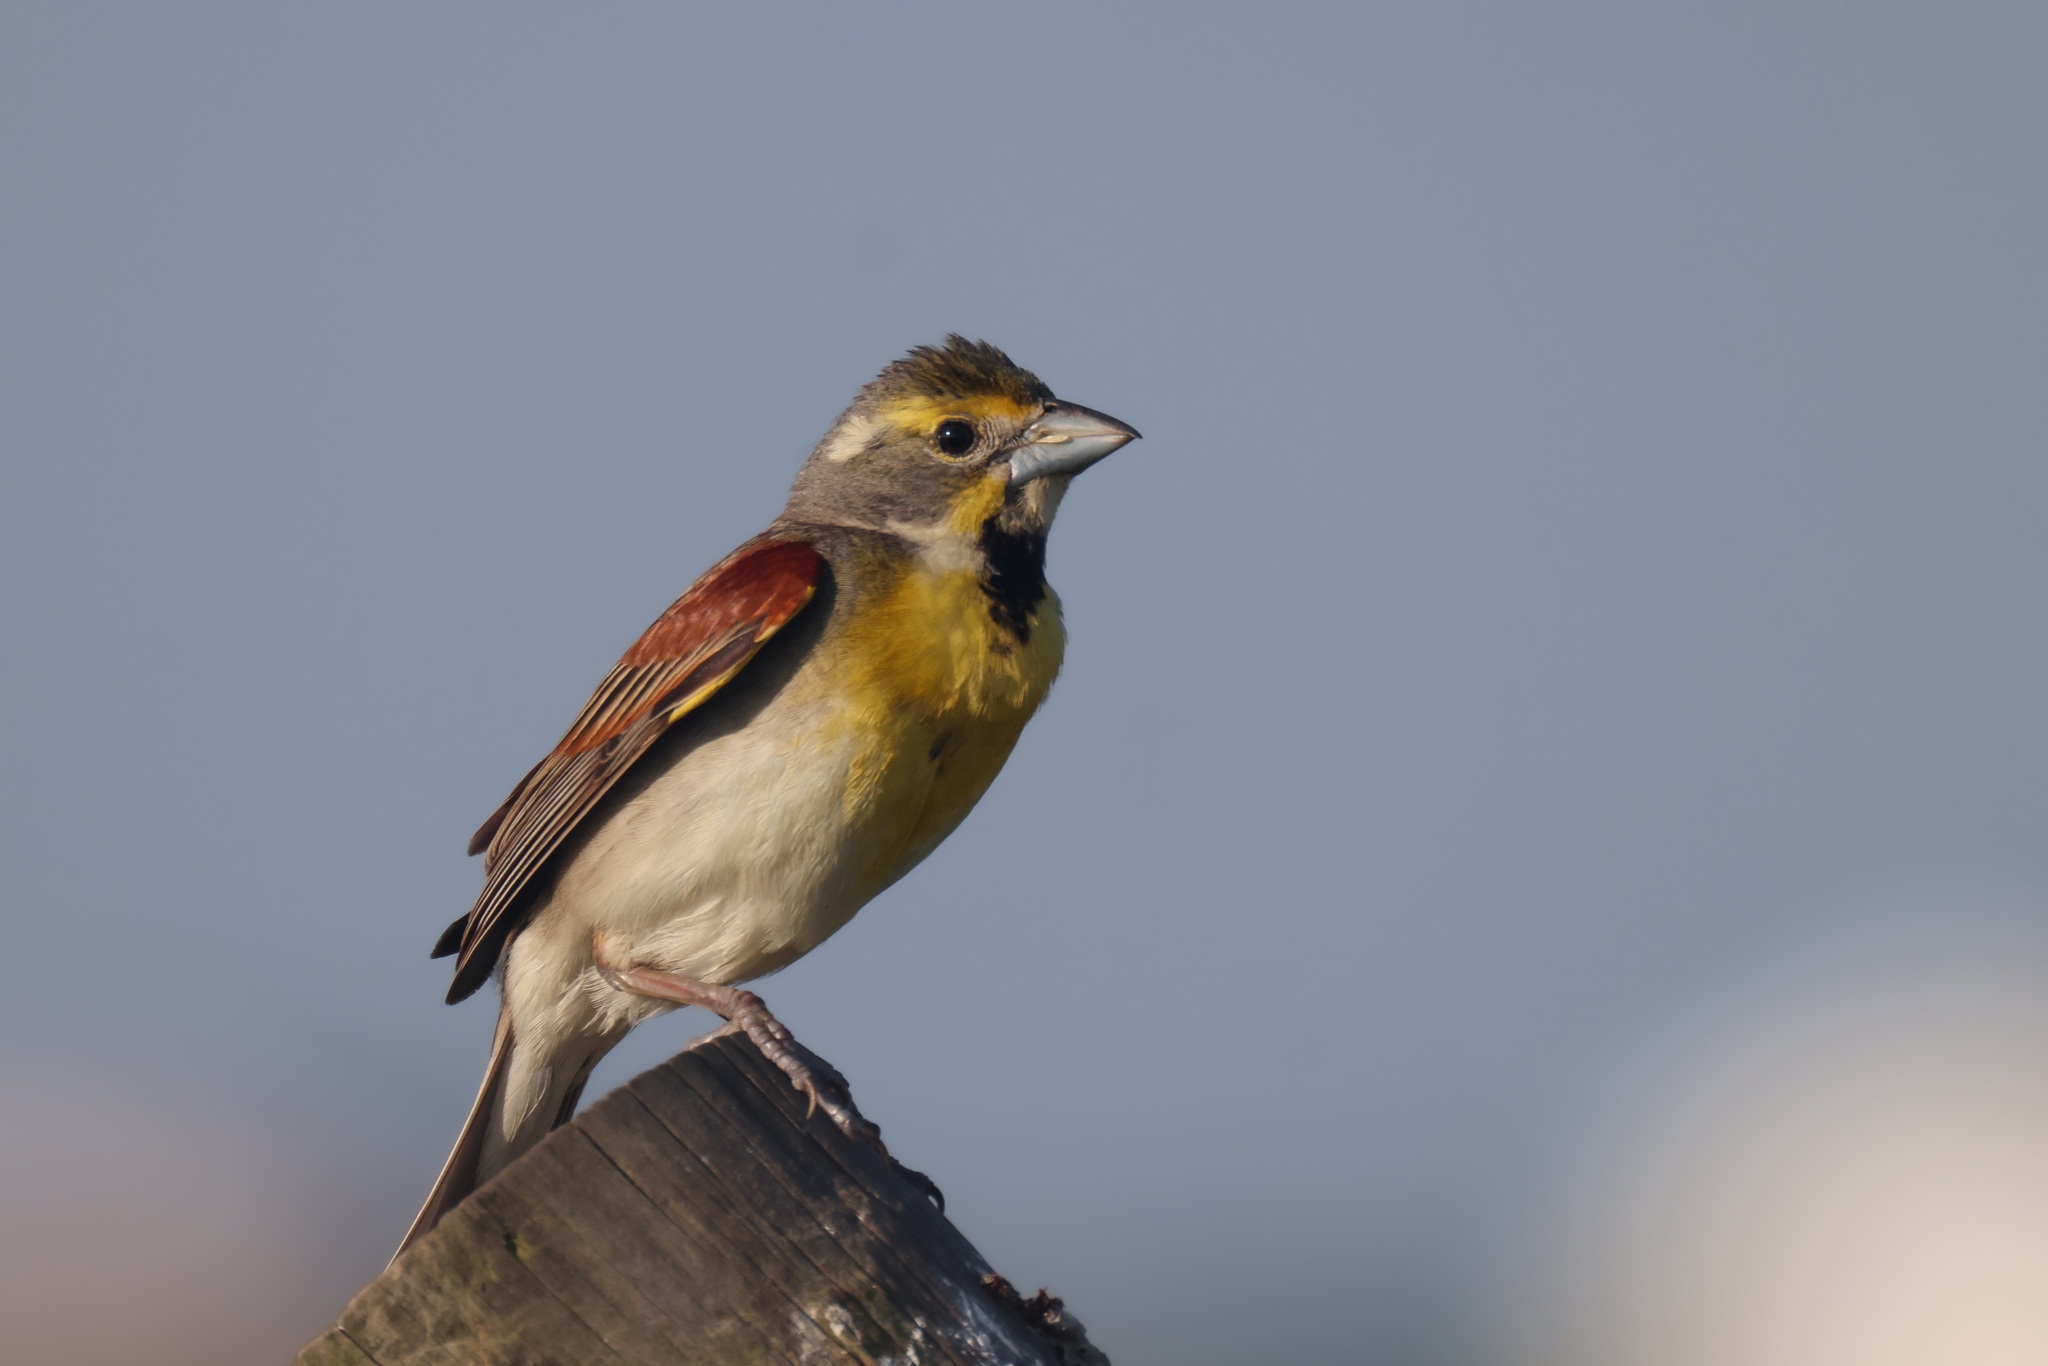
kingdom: Animalia
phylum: Chordata
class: Aves
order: Passeriformes
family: Cardinalidae
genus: Spiza
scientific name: Spiza americana
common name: Dickcissel
